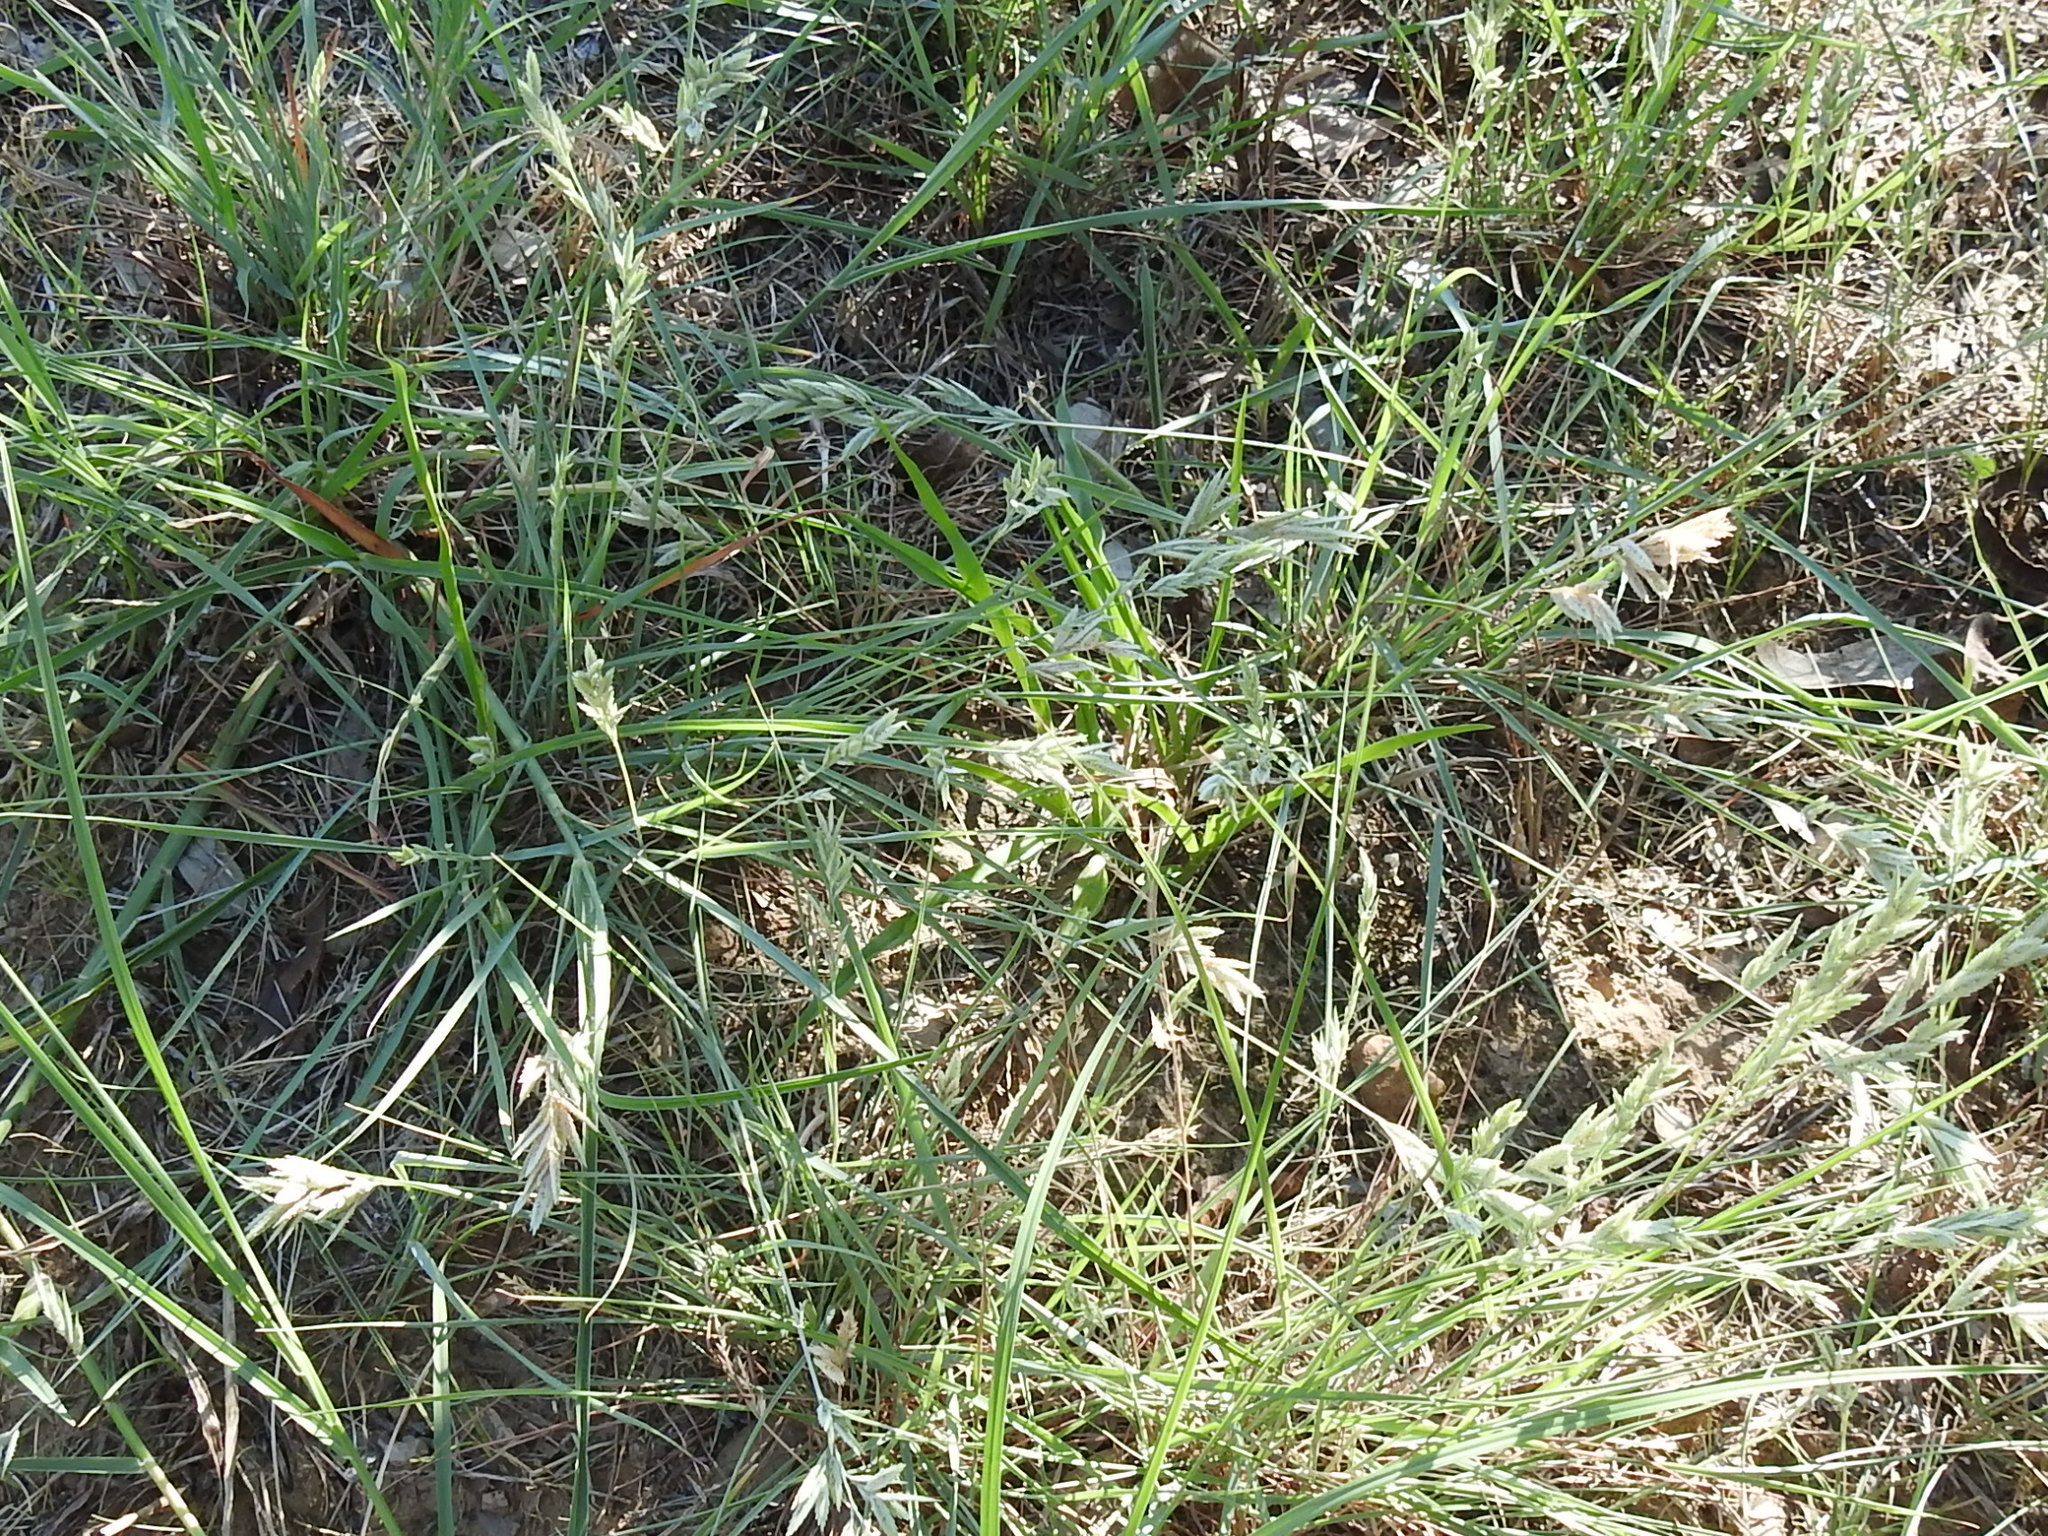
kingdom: Plantae
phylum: Tracheophyta
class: Liliopsida
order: Poales
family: Poaceae
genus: Eragrostis
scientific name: Eragrostis secundiflora
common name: Red love grass
